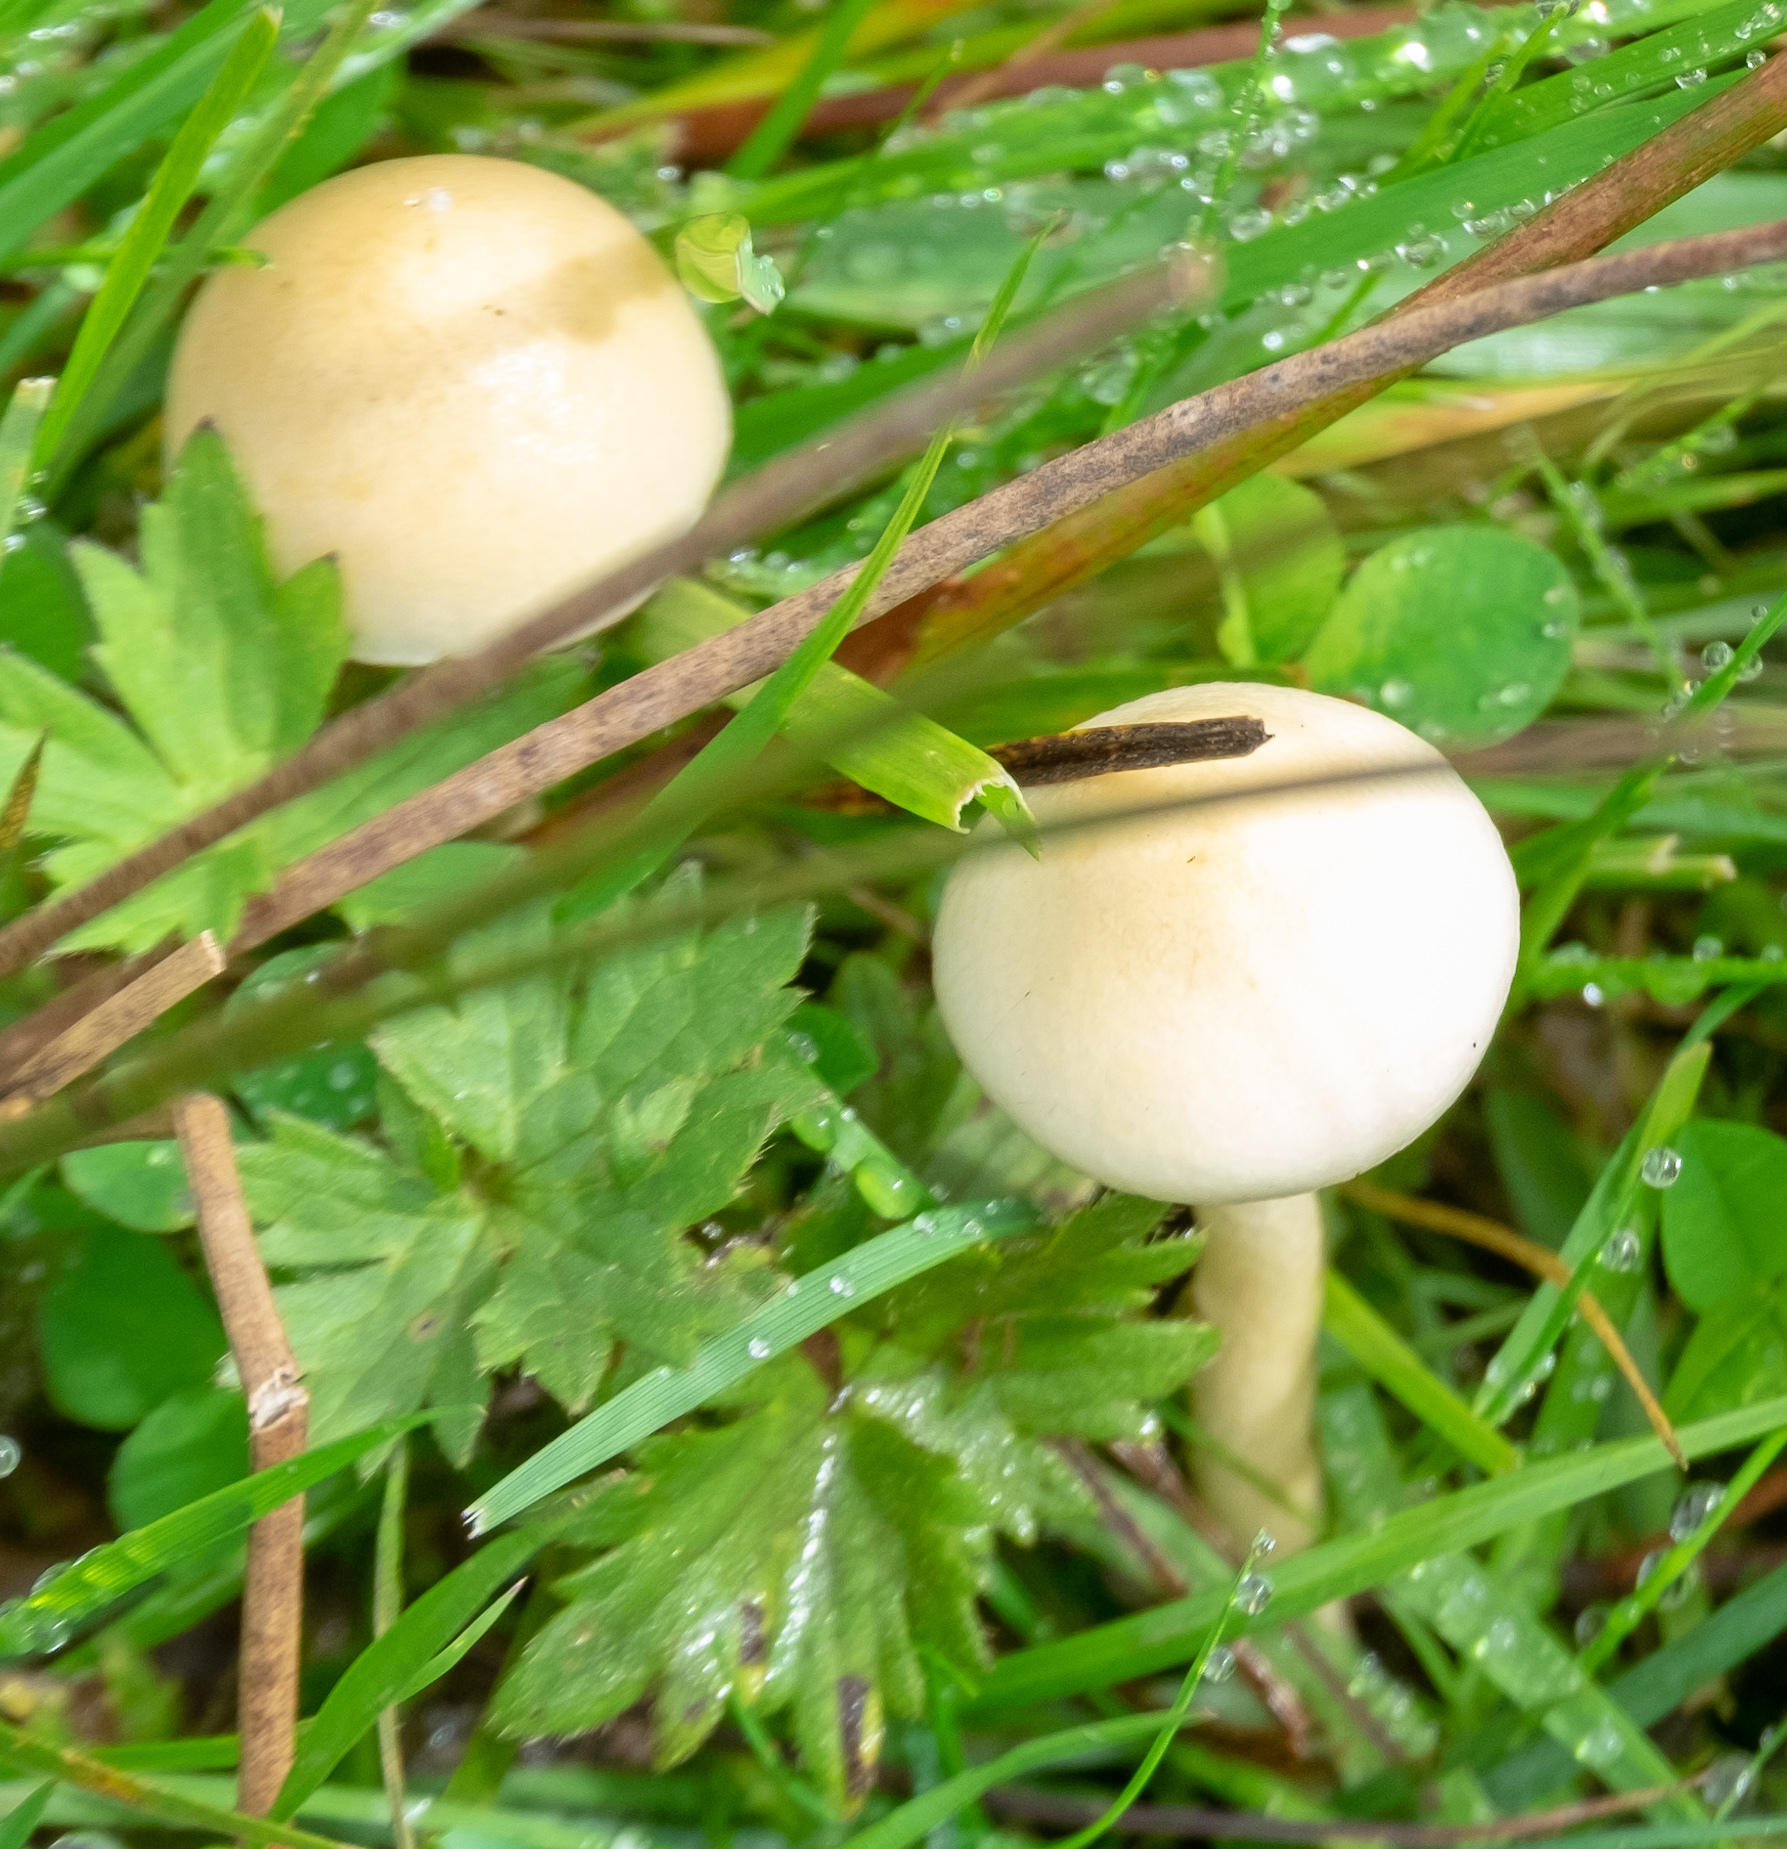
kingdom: Fungi
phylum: Basidiomycota
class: Agaricomycetes
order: Agaricales
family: Strophariaceae
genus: Protostropharia
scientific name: Protostropharia semiglobata
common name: Dung roundhead
